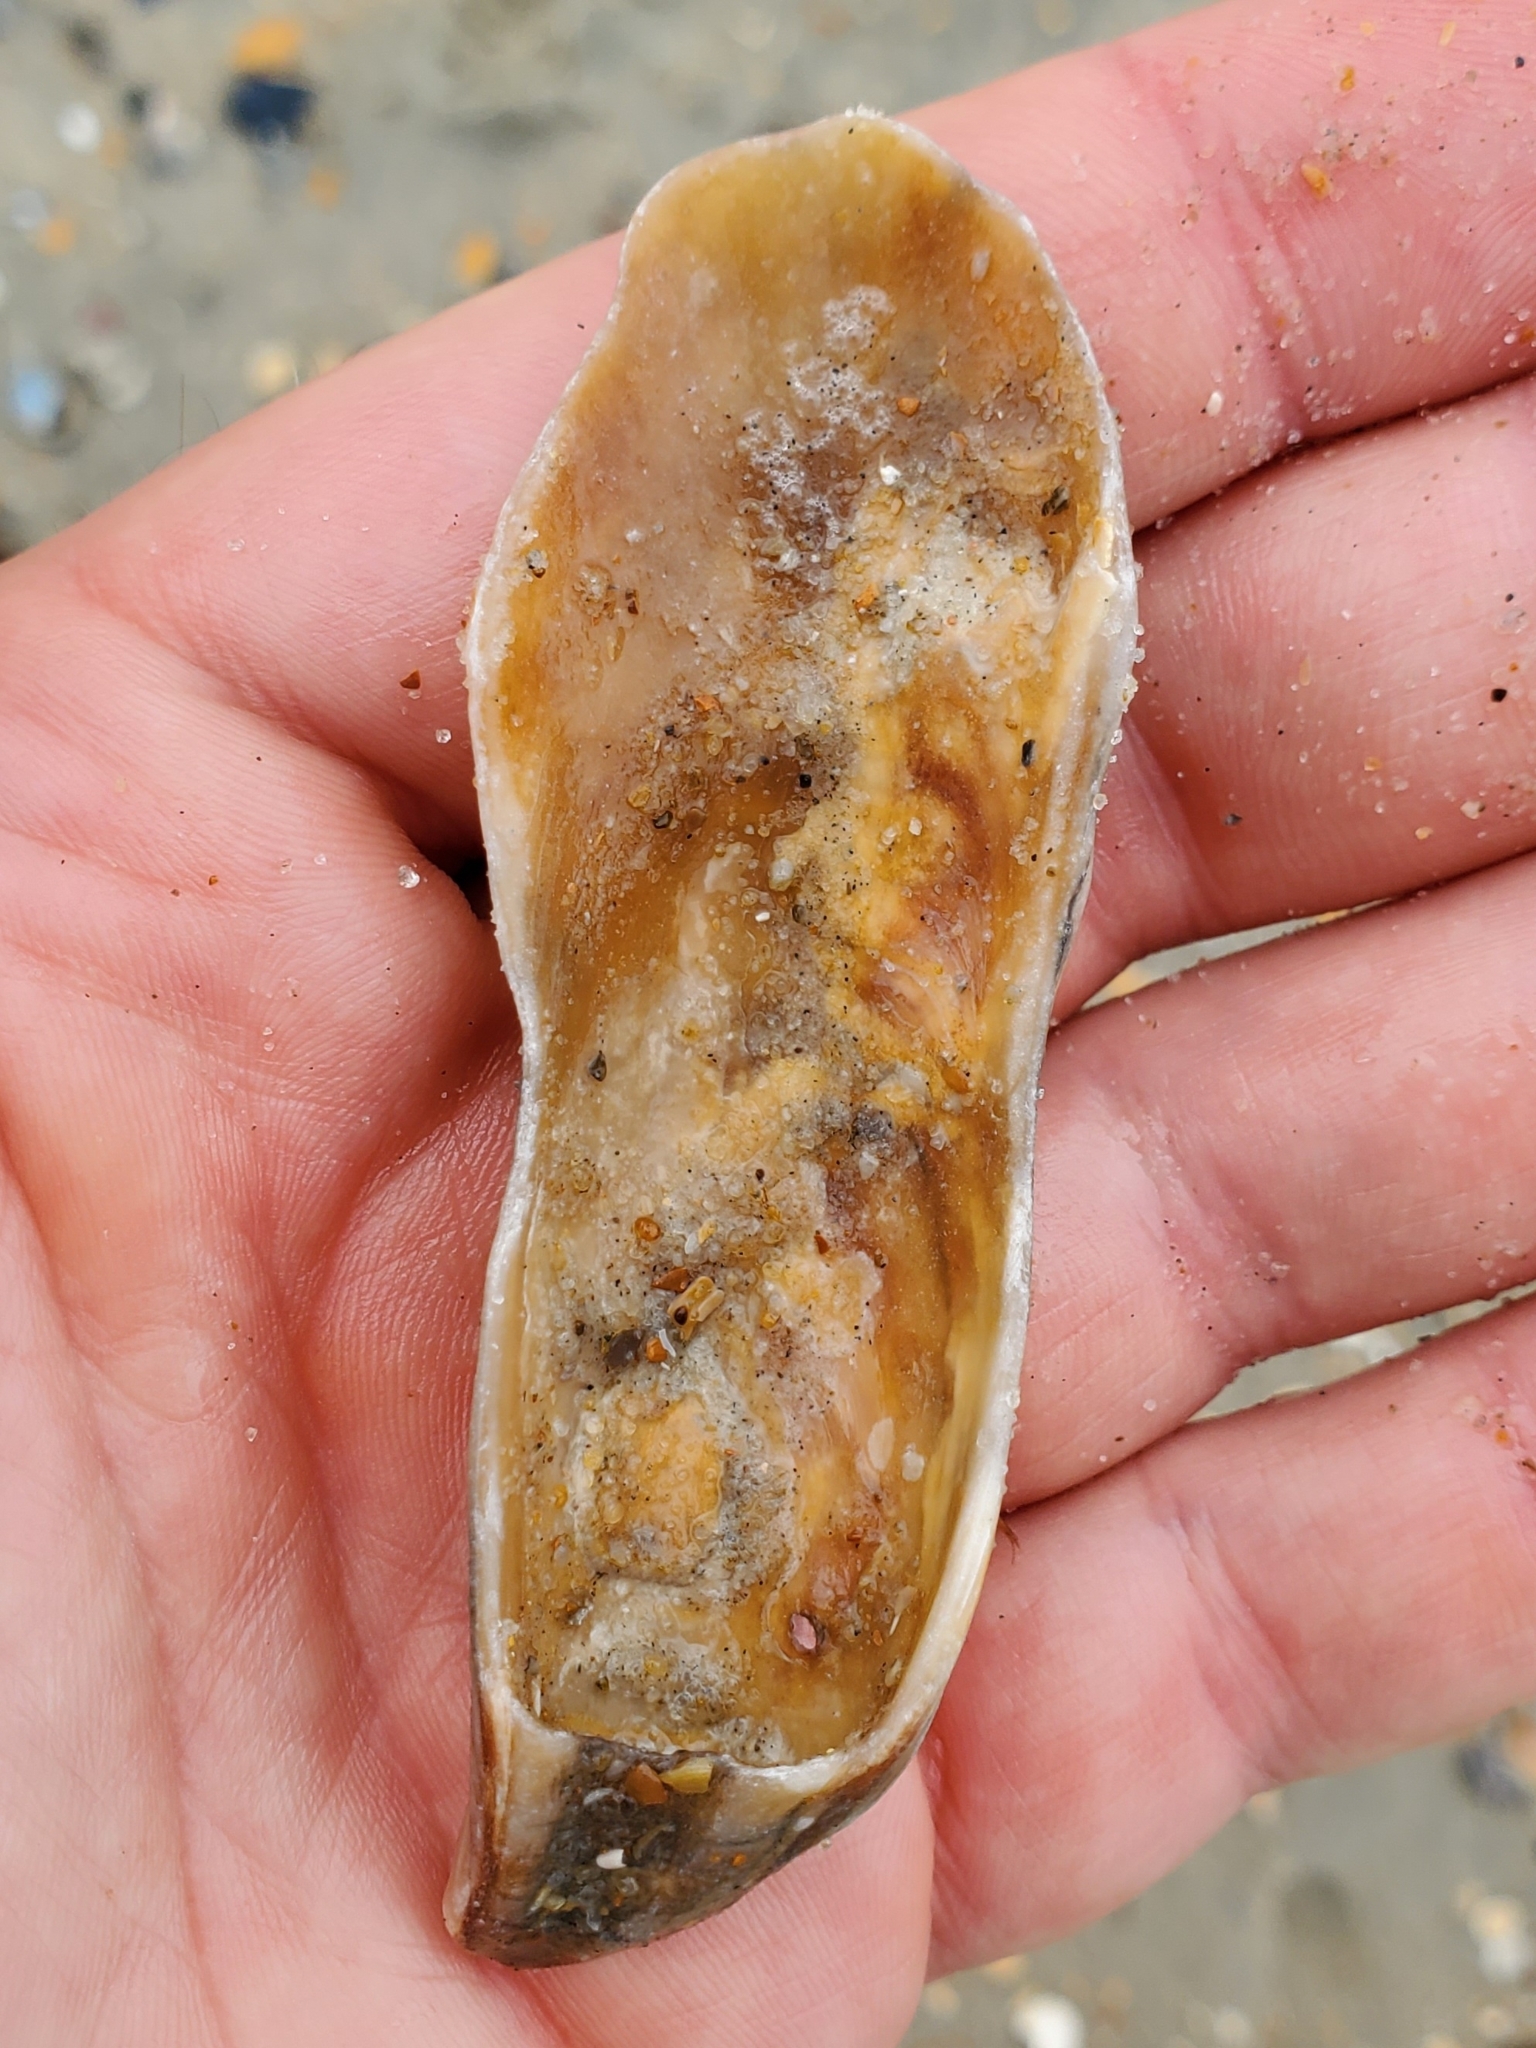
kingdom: Animalia
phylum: Mollusca
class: Bivalvia
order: Ostreida
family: Ostreidae
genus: Crassostrea
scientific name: Crassostrea virginica
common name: American oyster
